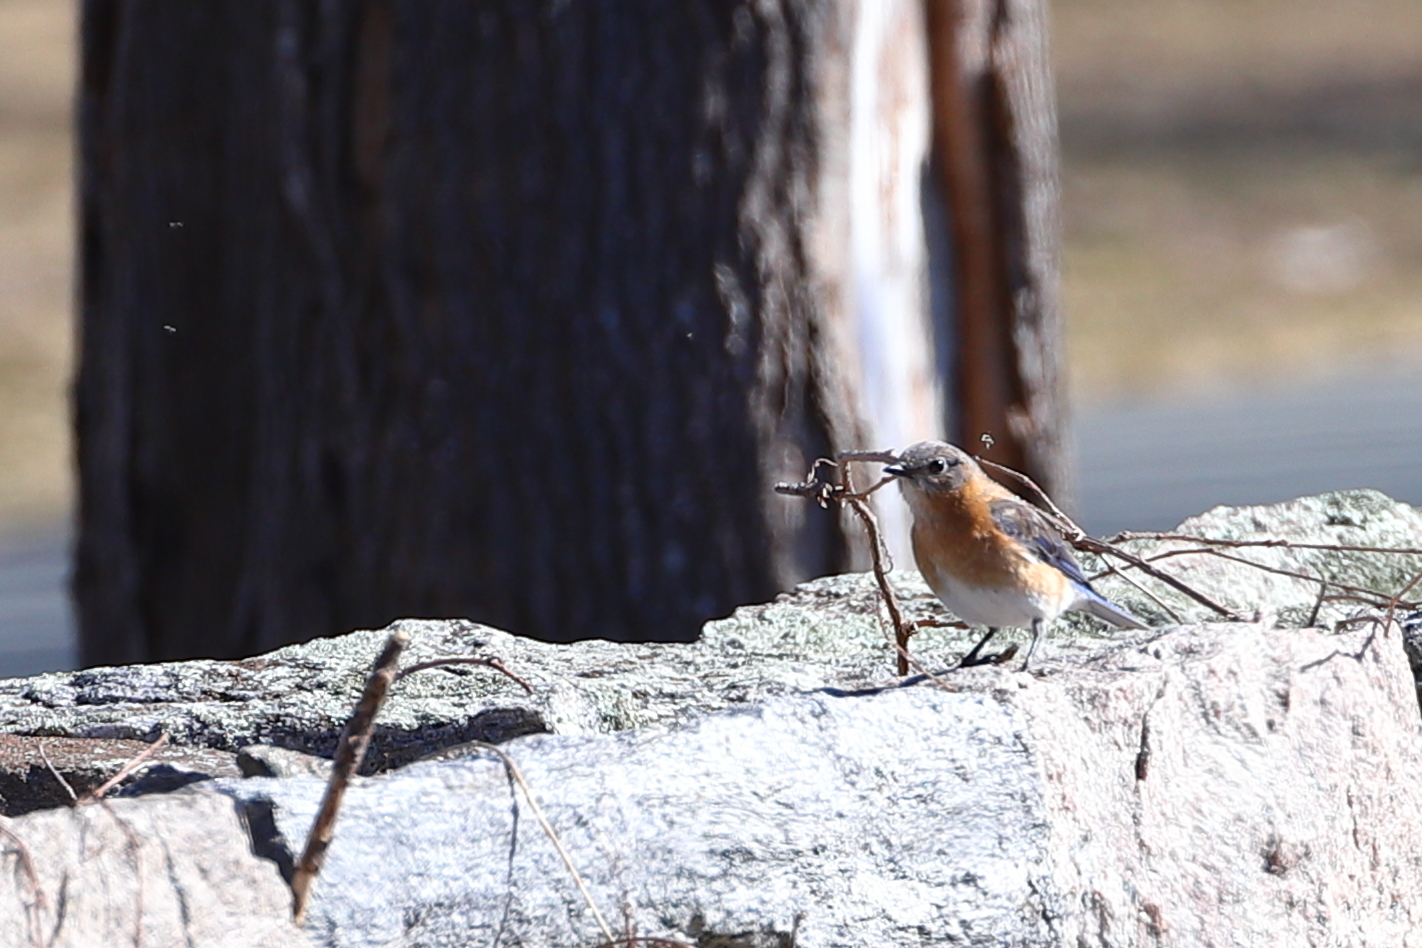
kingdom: Animalia
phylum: Chordata
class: Aves
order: Passeriformes
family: Turdidae
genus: Sialia
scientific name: Sialia sialis
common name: Eastern bluebird
